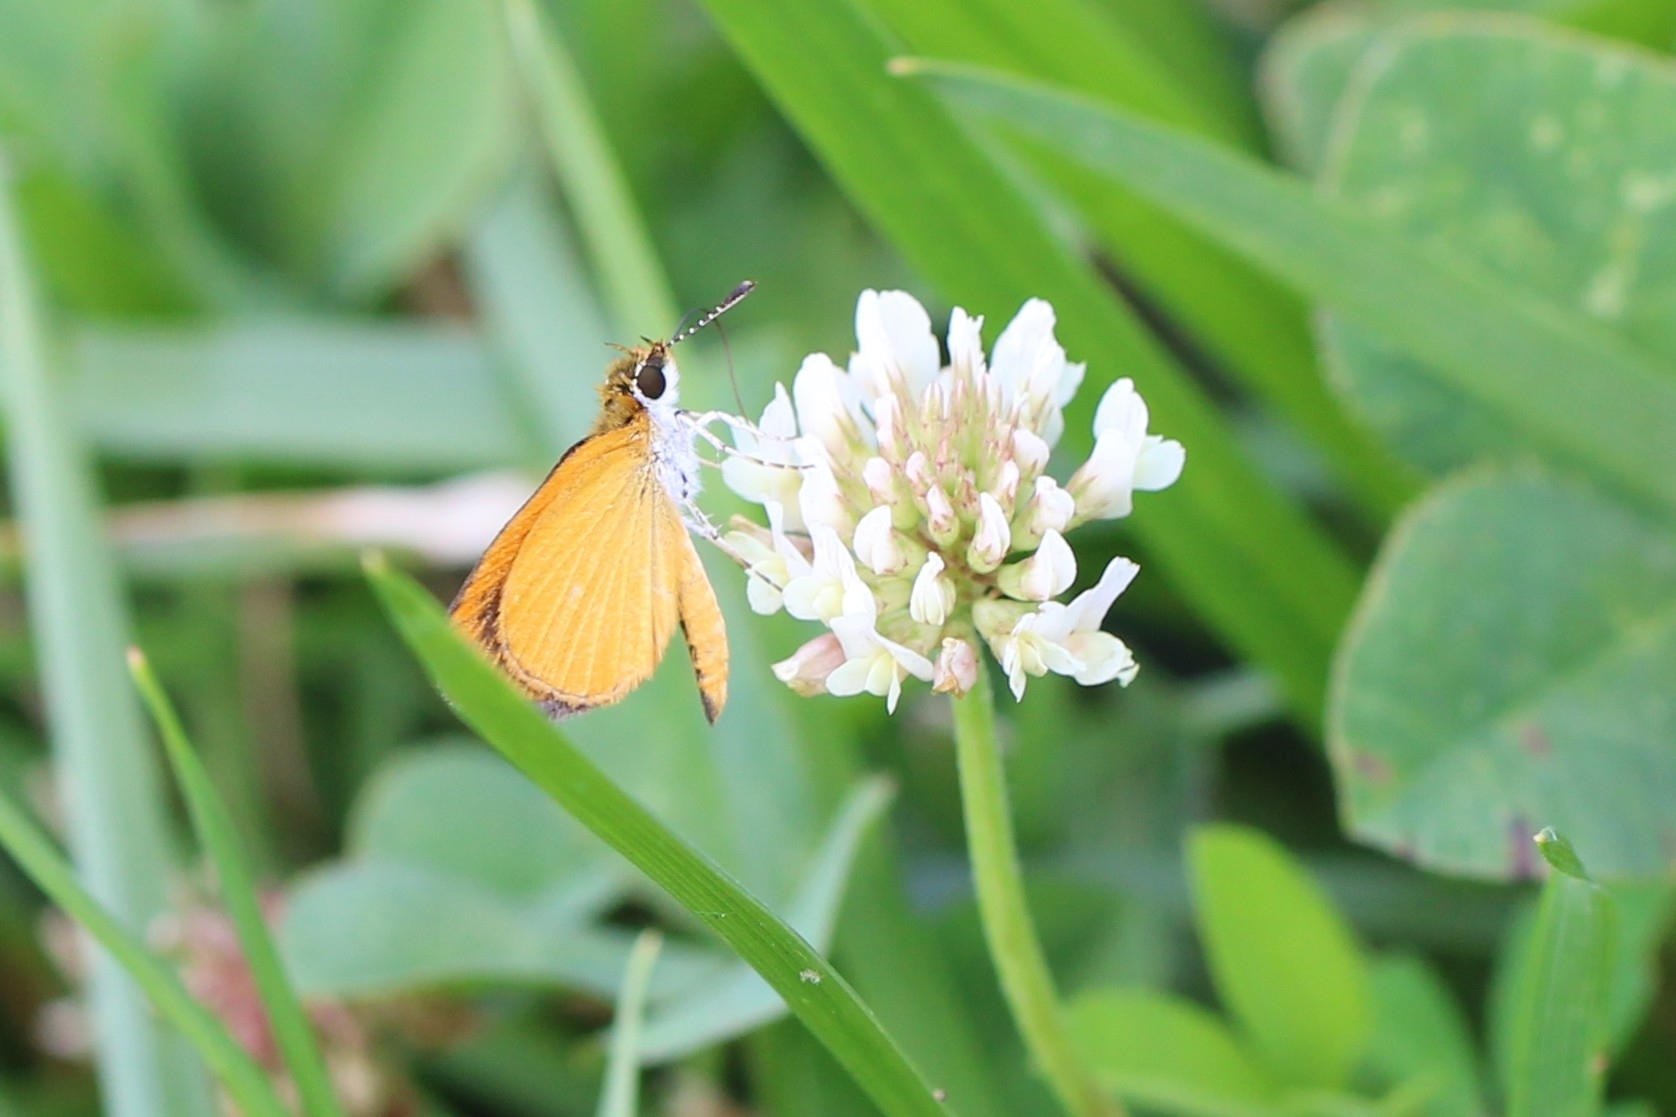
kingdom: Animalia
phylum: Arthropoda
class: Insecta
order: Lepidoptera
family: Hesperiidae
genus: Ancyloxypha
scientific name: Ancyloxypha numitor
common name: Least skipper
